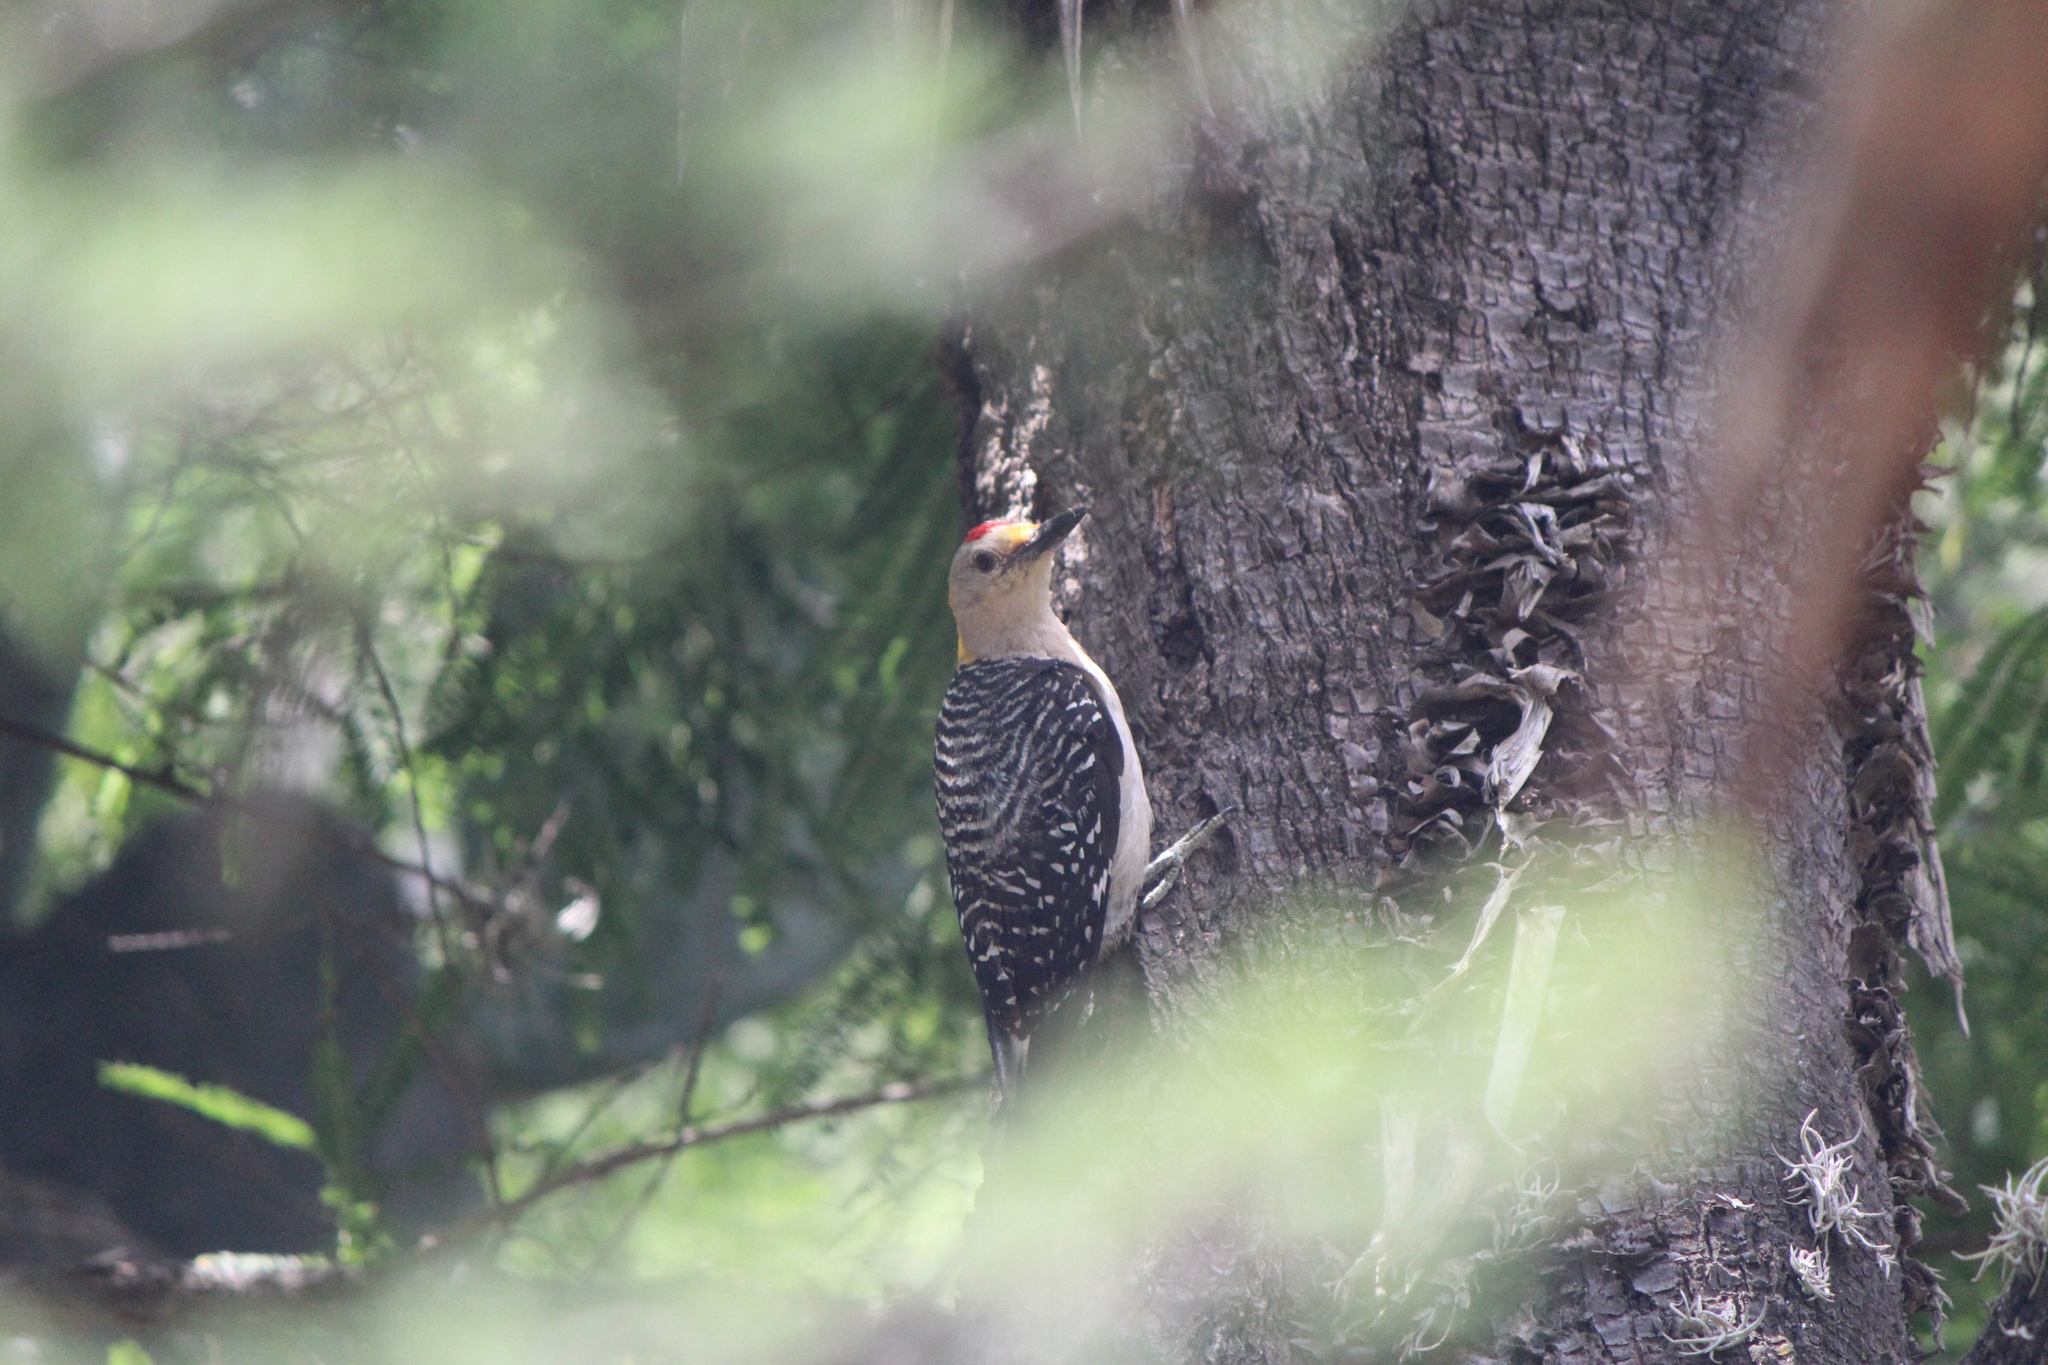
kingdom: Animalia
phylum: Chordata
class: Aves
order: Piciformes
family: Picidae
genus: Melanerpes
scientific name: Melanerpes aurifrons
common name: Golden-fronted woodpecker
